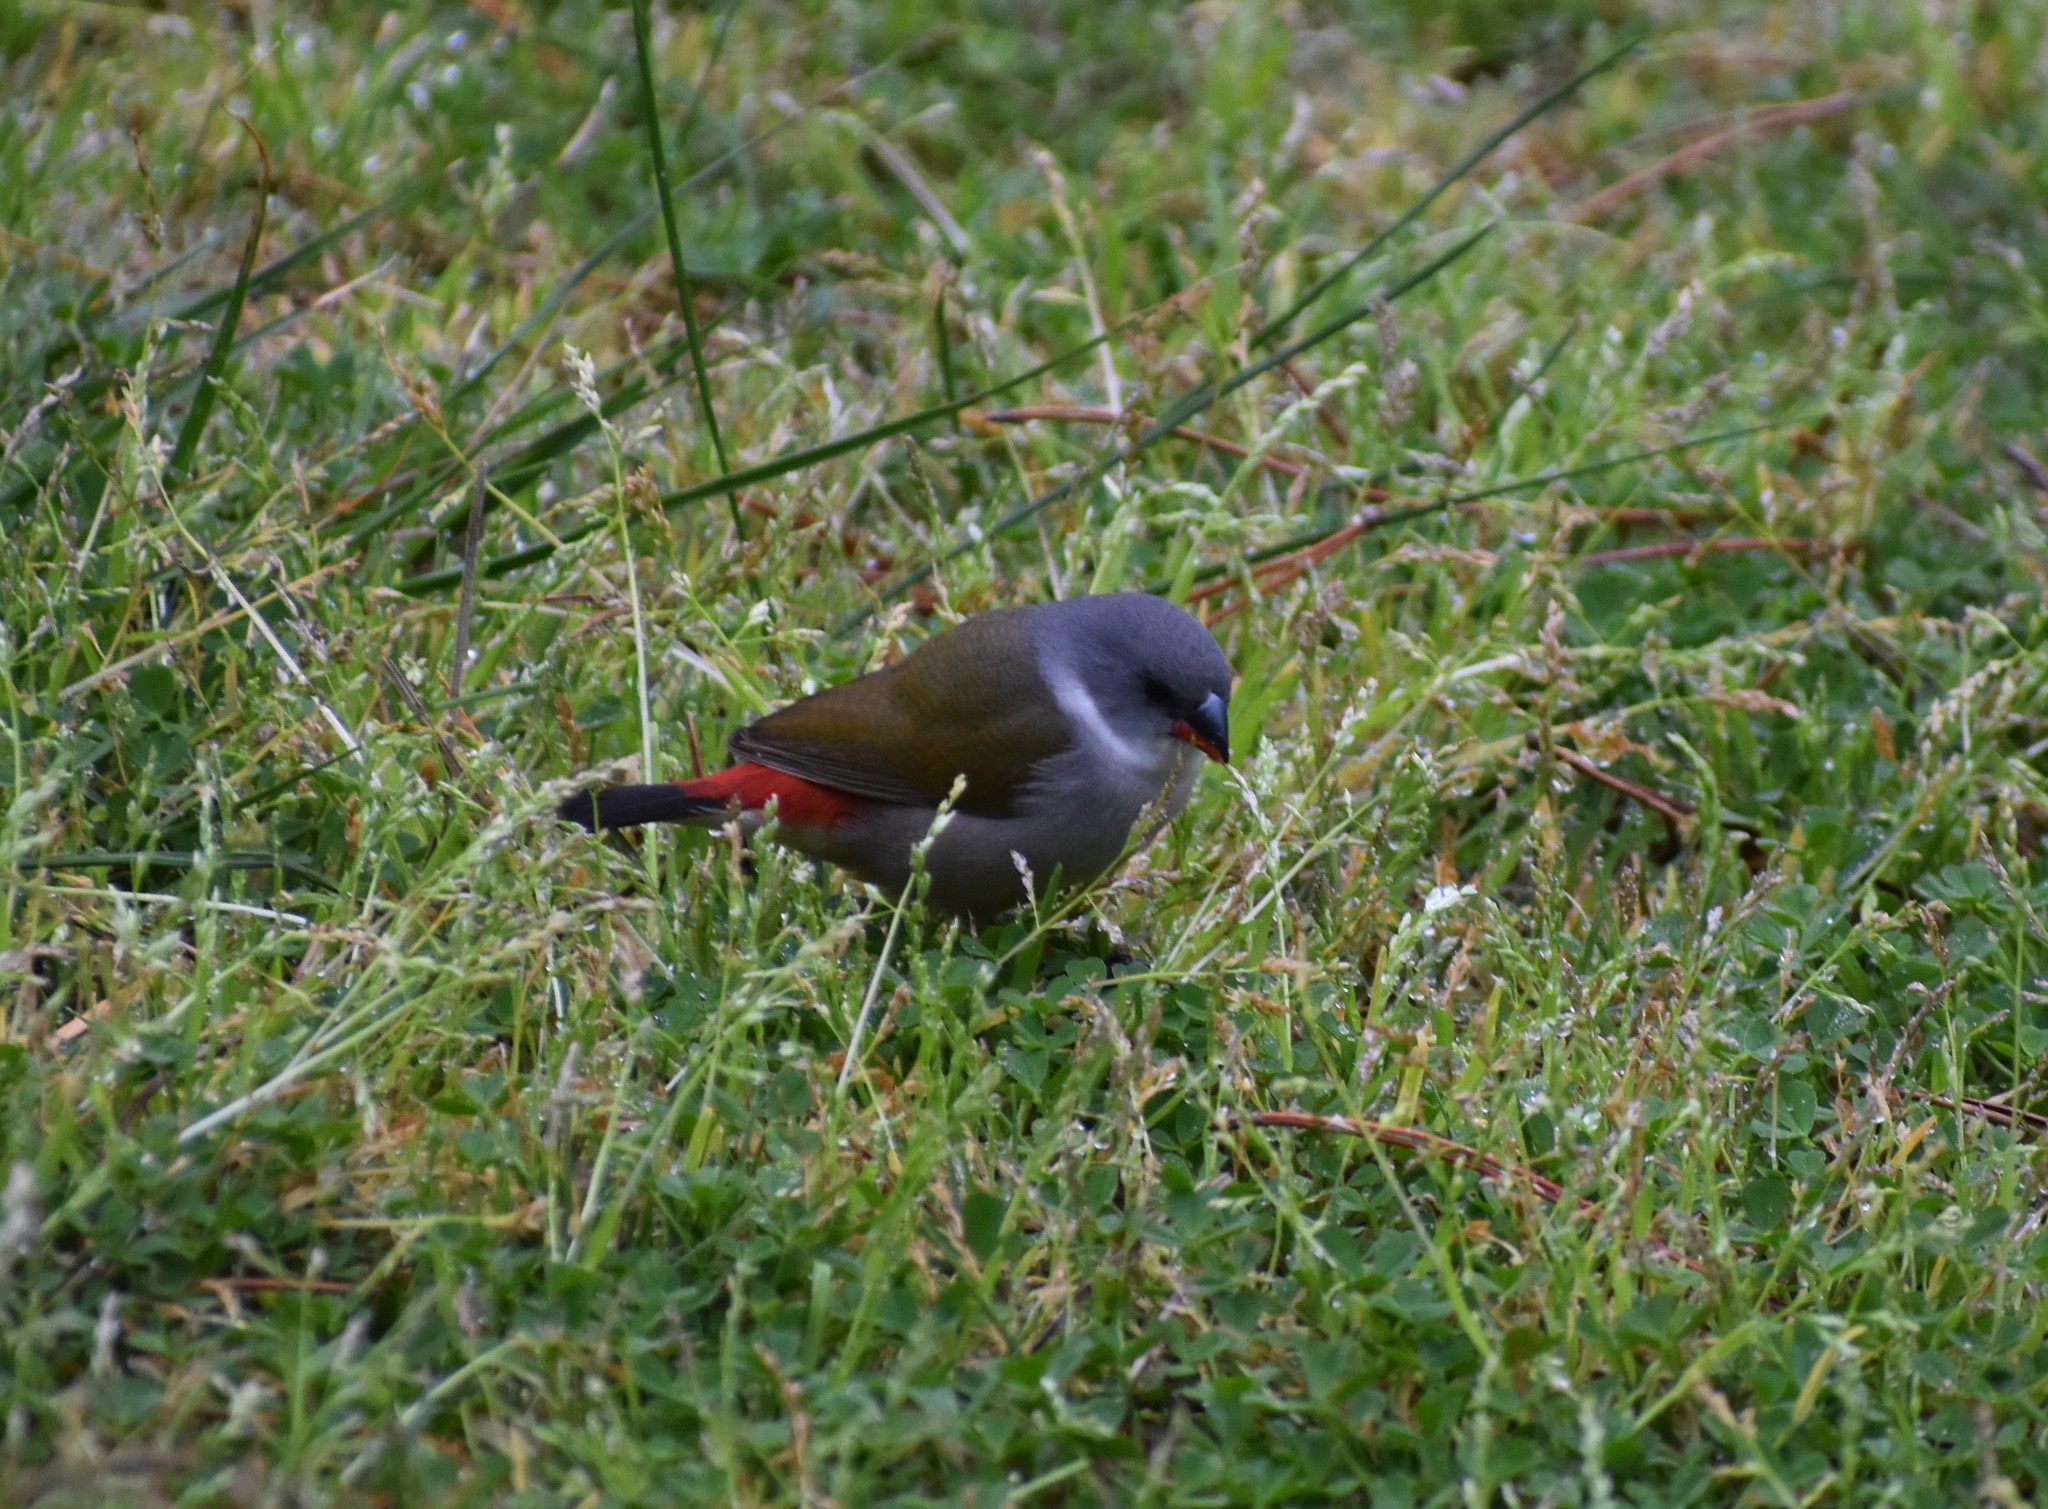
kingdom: Animalia
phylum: Chordata
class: Aves
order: Passeriformes
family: Estrildidae
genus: Coccopygia
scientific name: Coccopygia melanotis
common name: Swee waxbill
